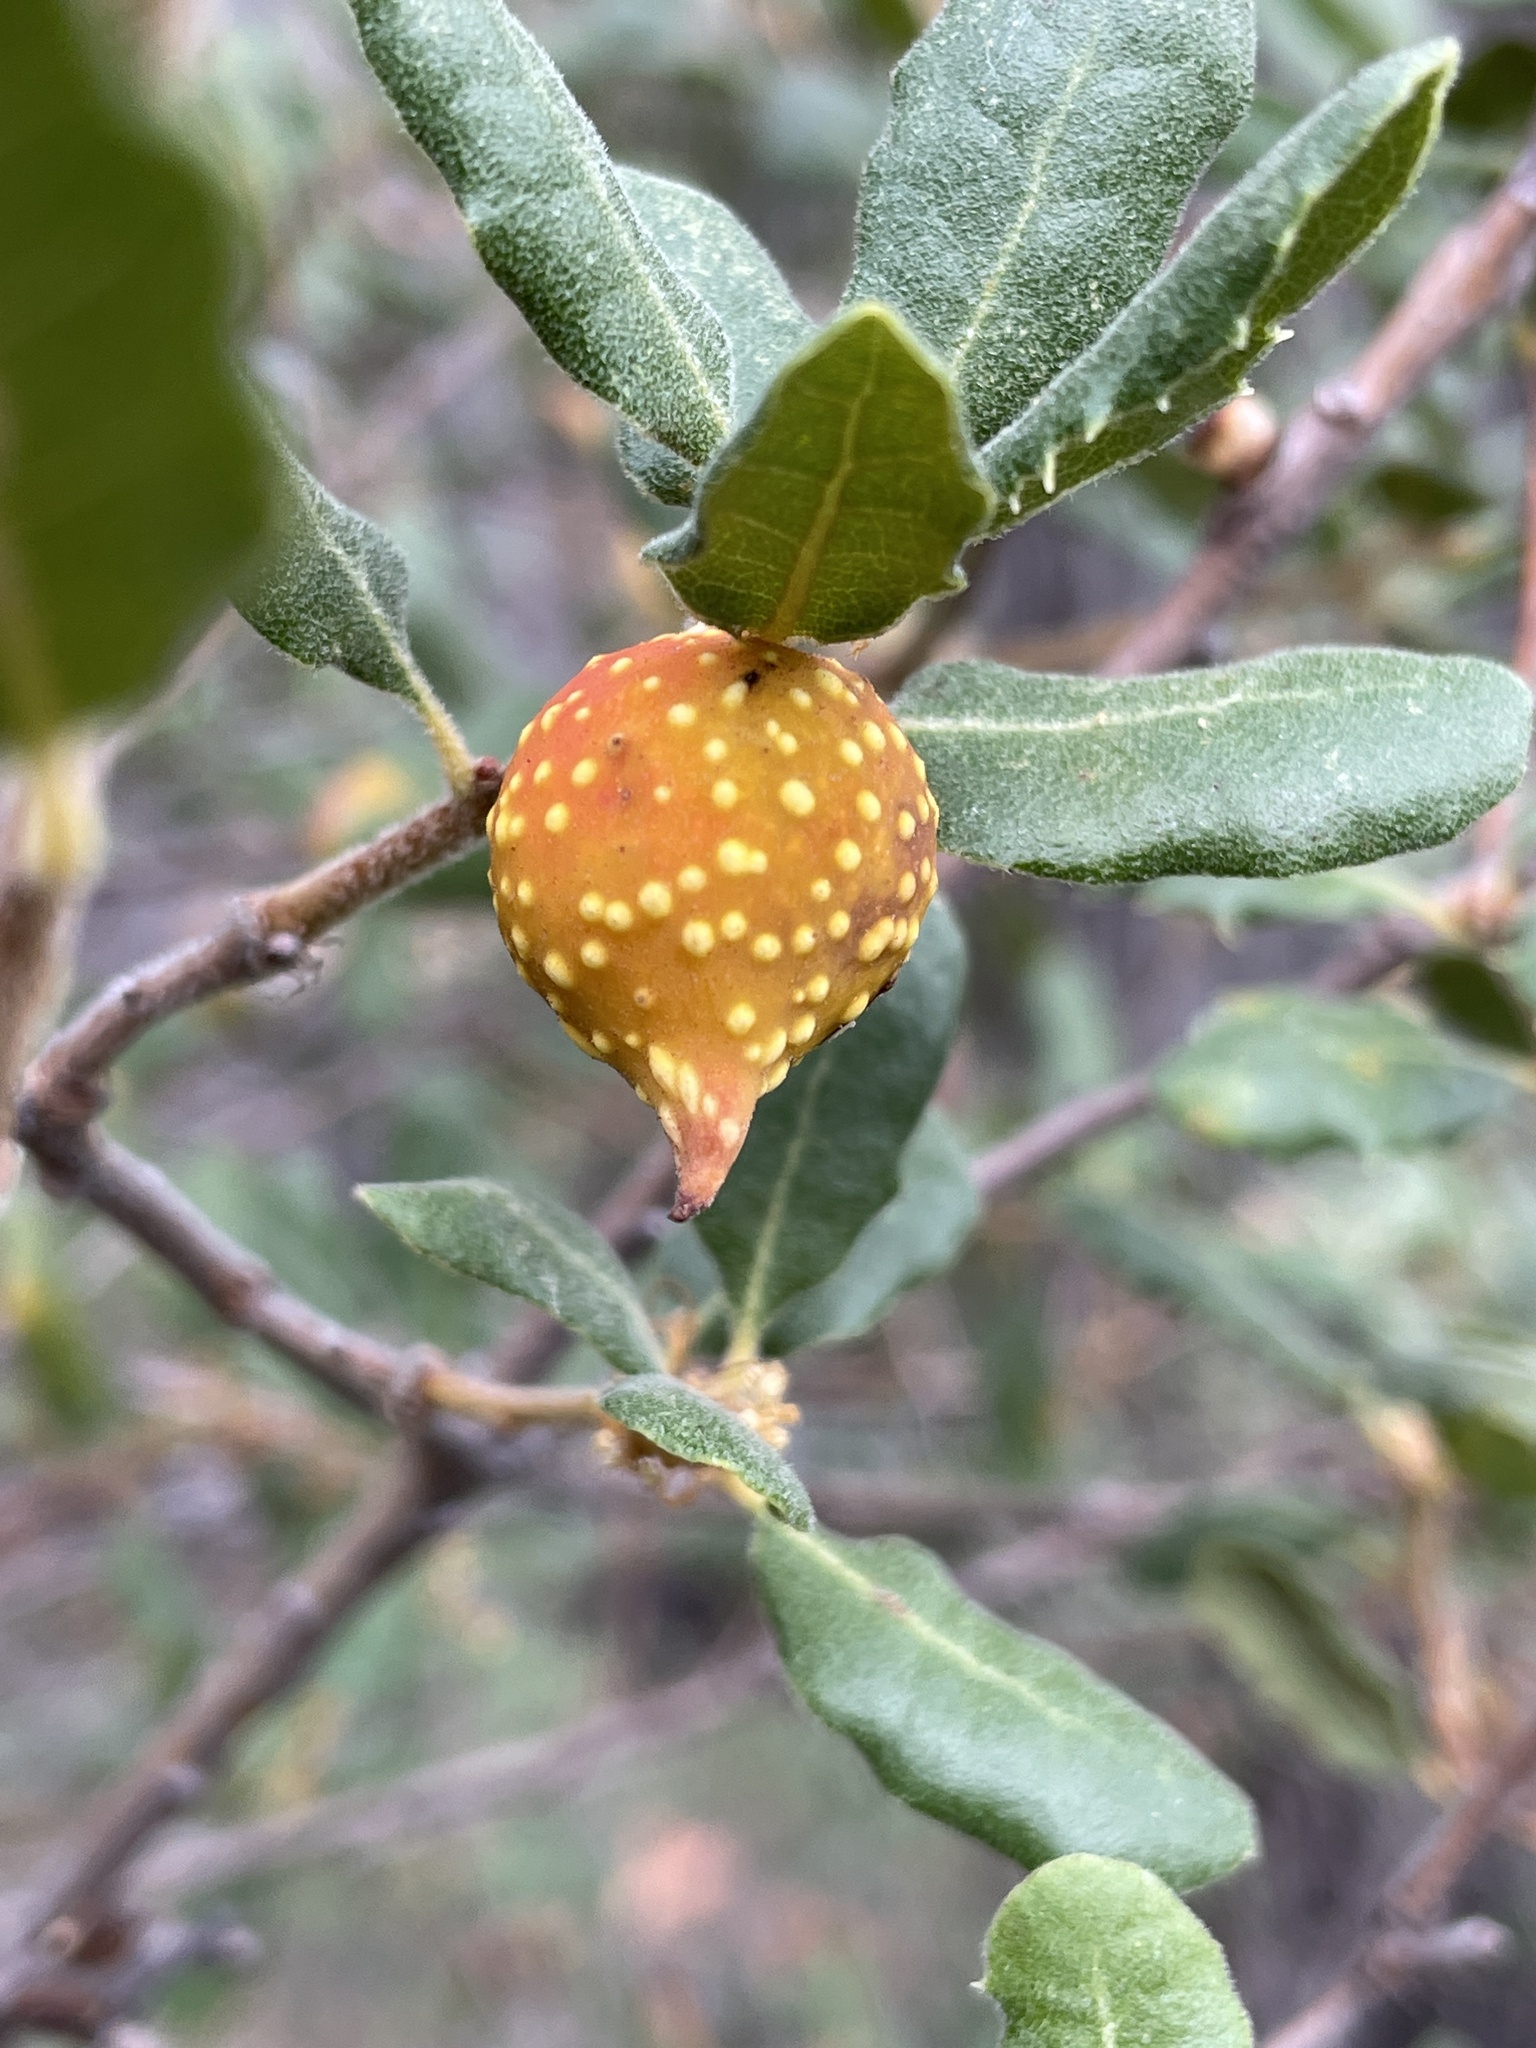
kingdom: Animalia
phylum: Arthropoda
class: Insecta
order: Hymenoptera
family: Cynipidae
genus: Burnettweldia
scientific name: Burnettweldia
